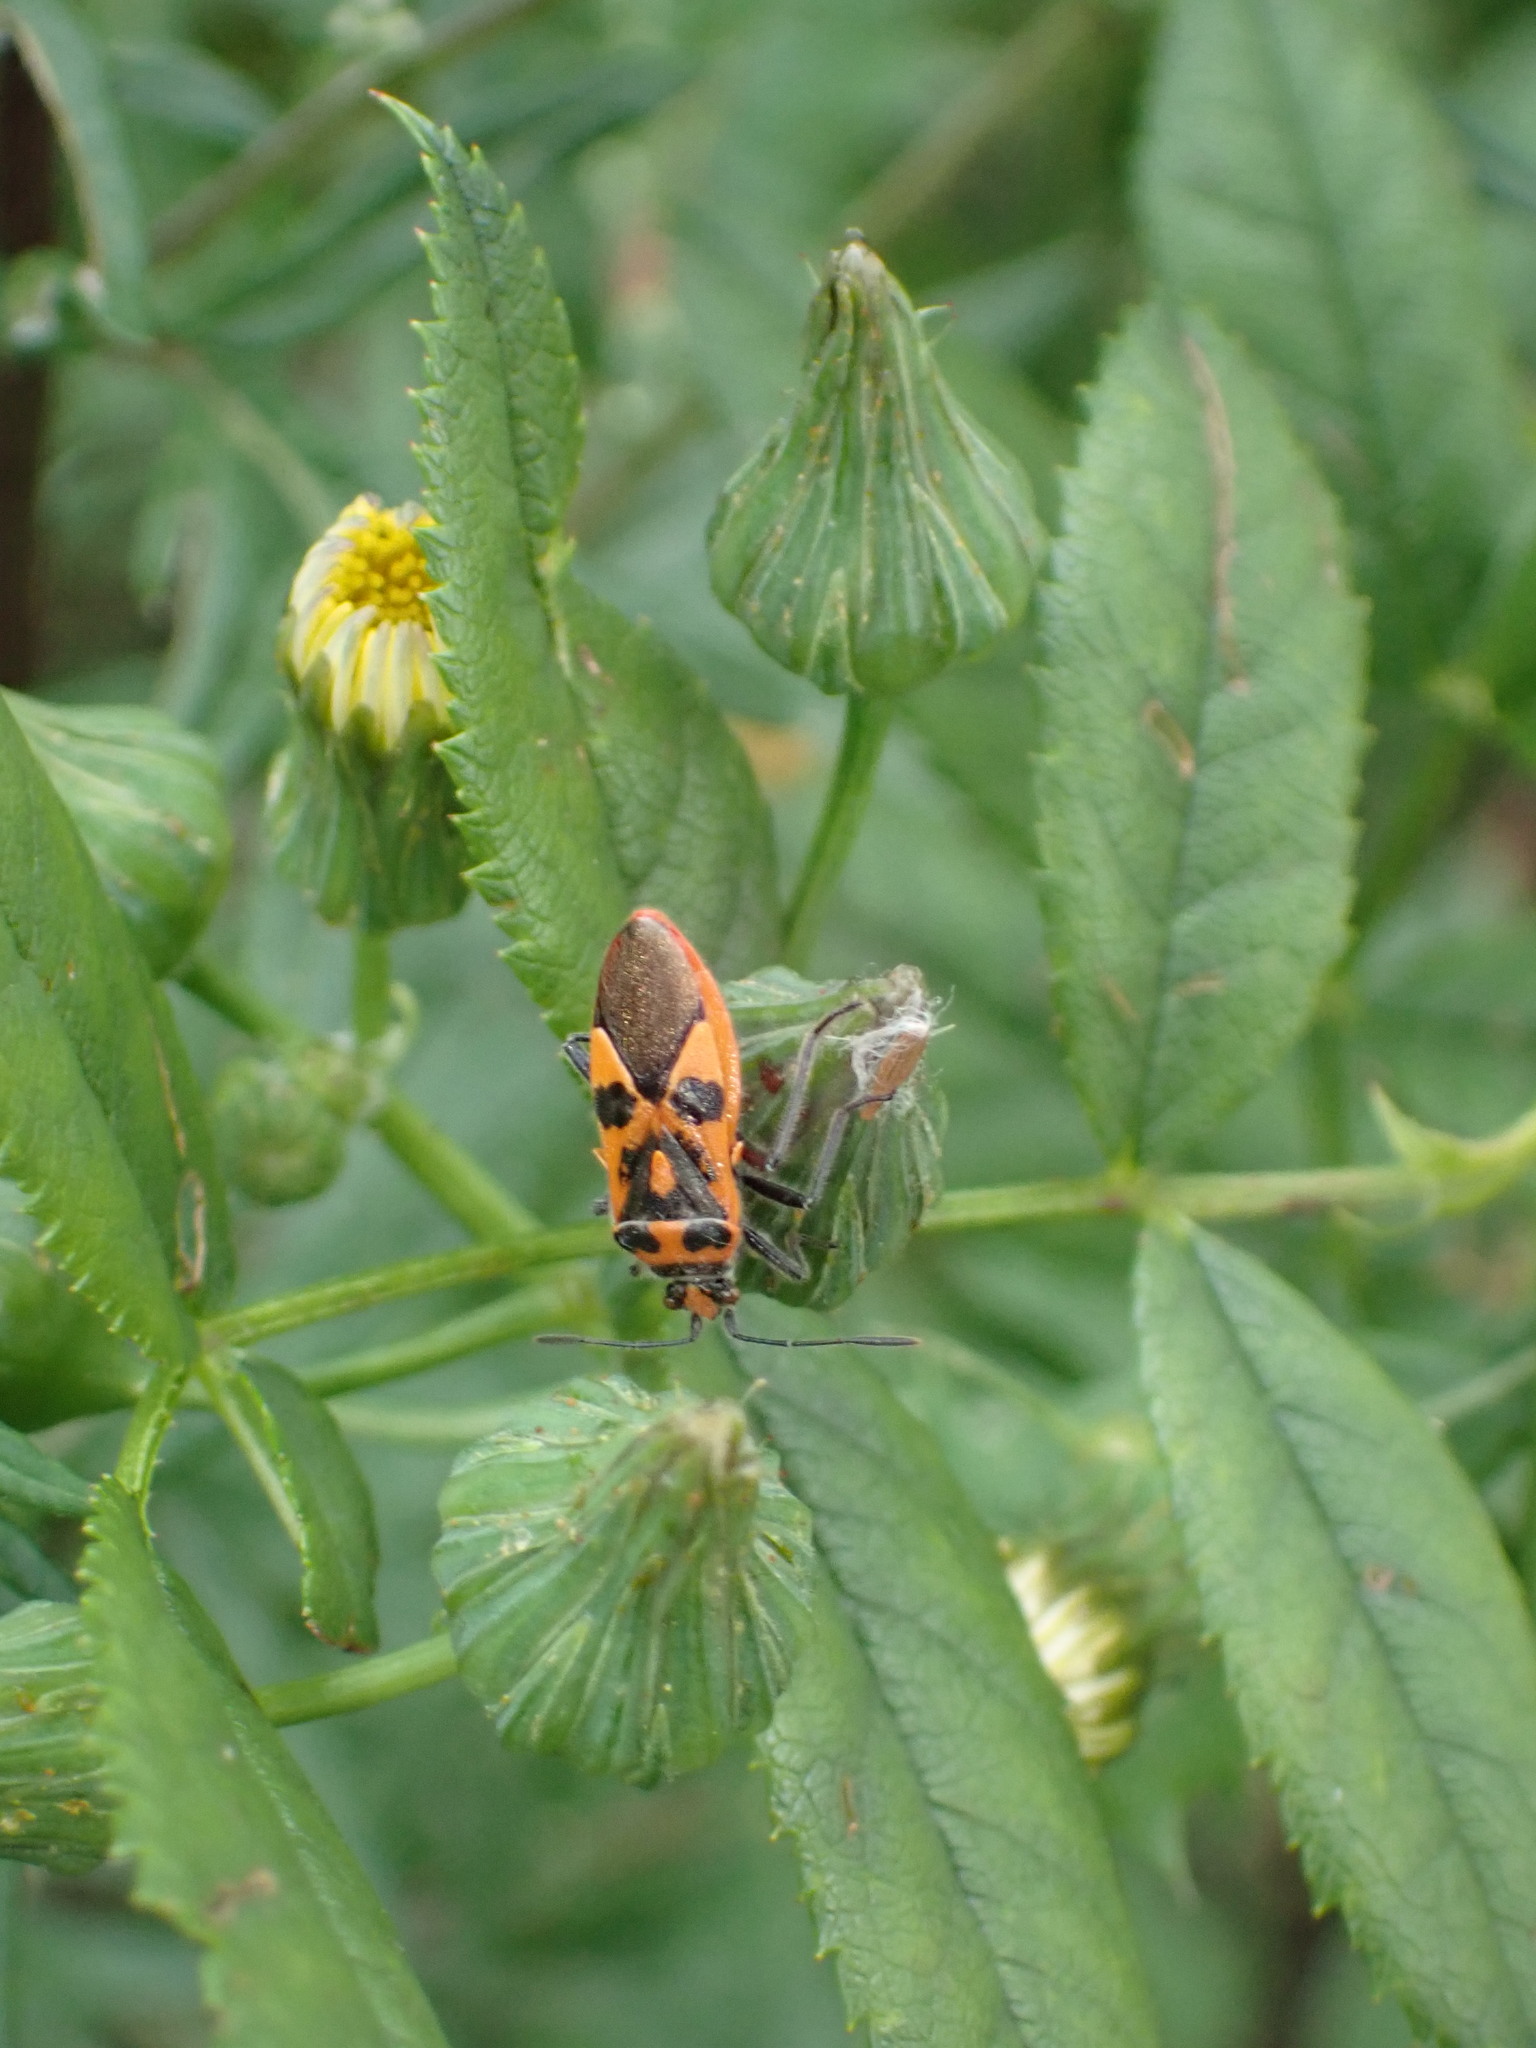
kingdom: Animalia
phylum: Arthropoda
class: Insecta
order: Hemiptera
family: Rhopalidae
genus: Corizus
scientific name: Corizus hyoscyami
